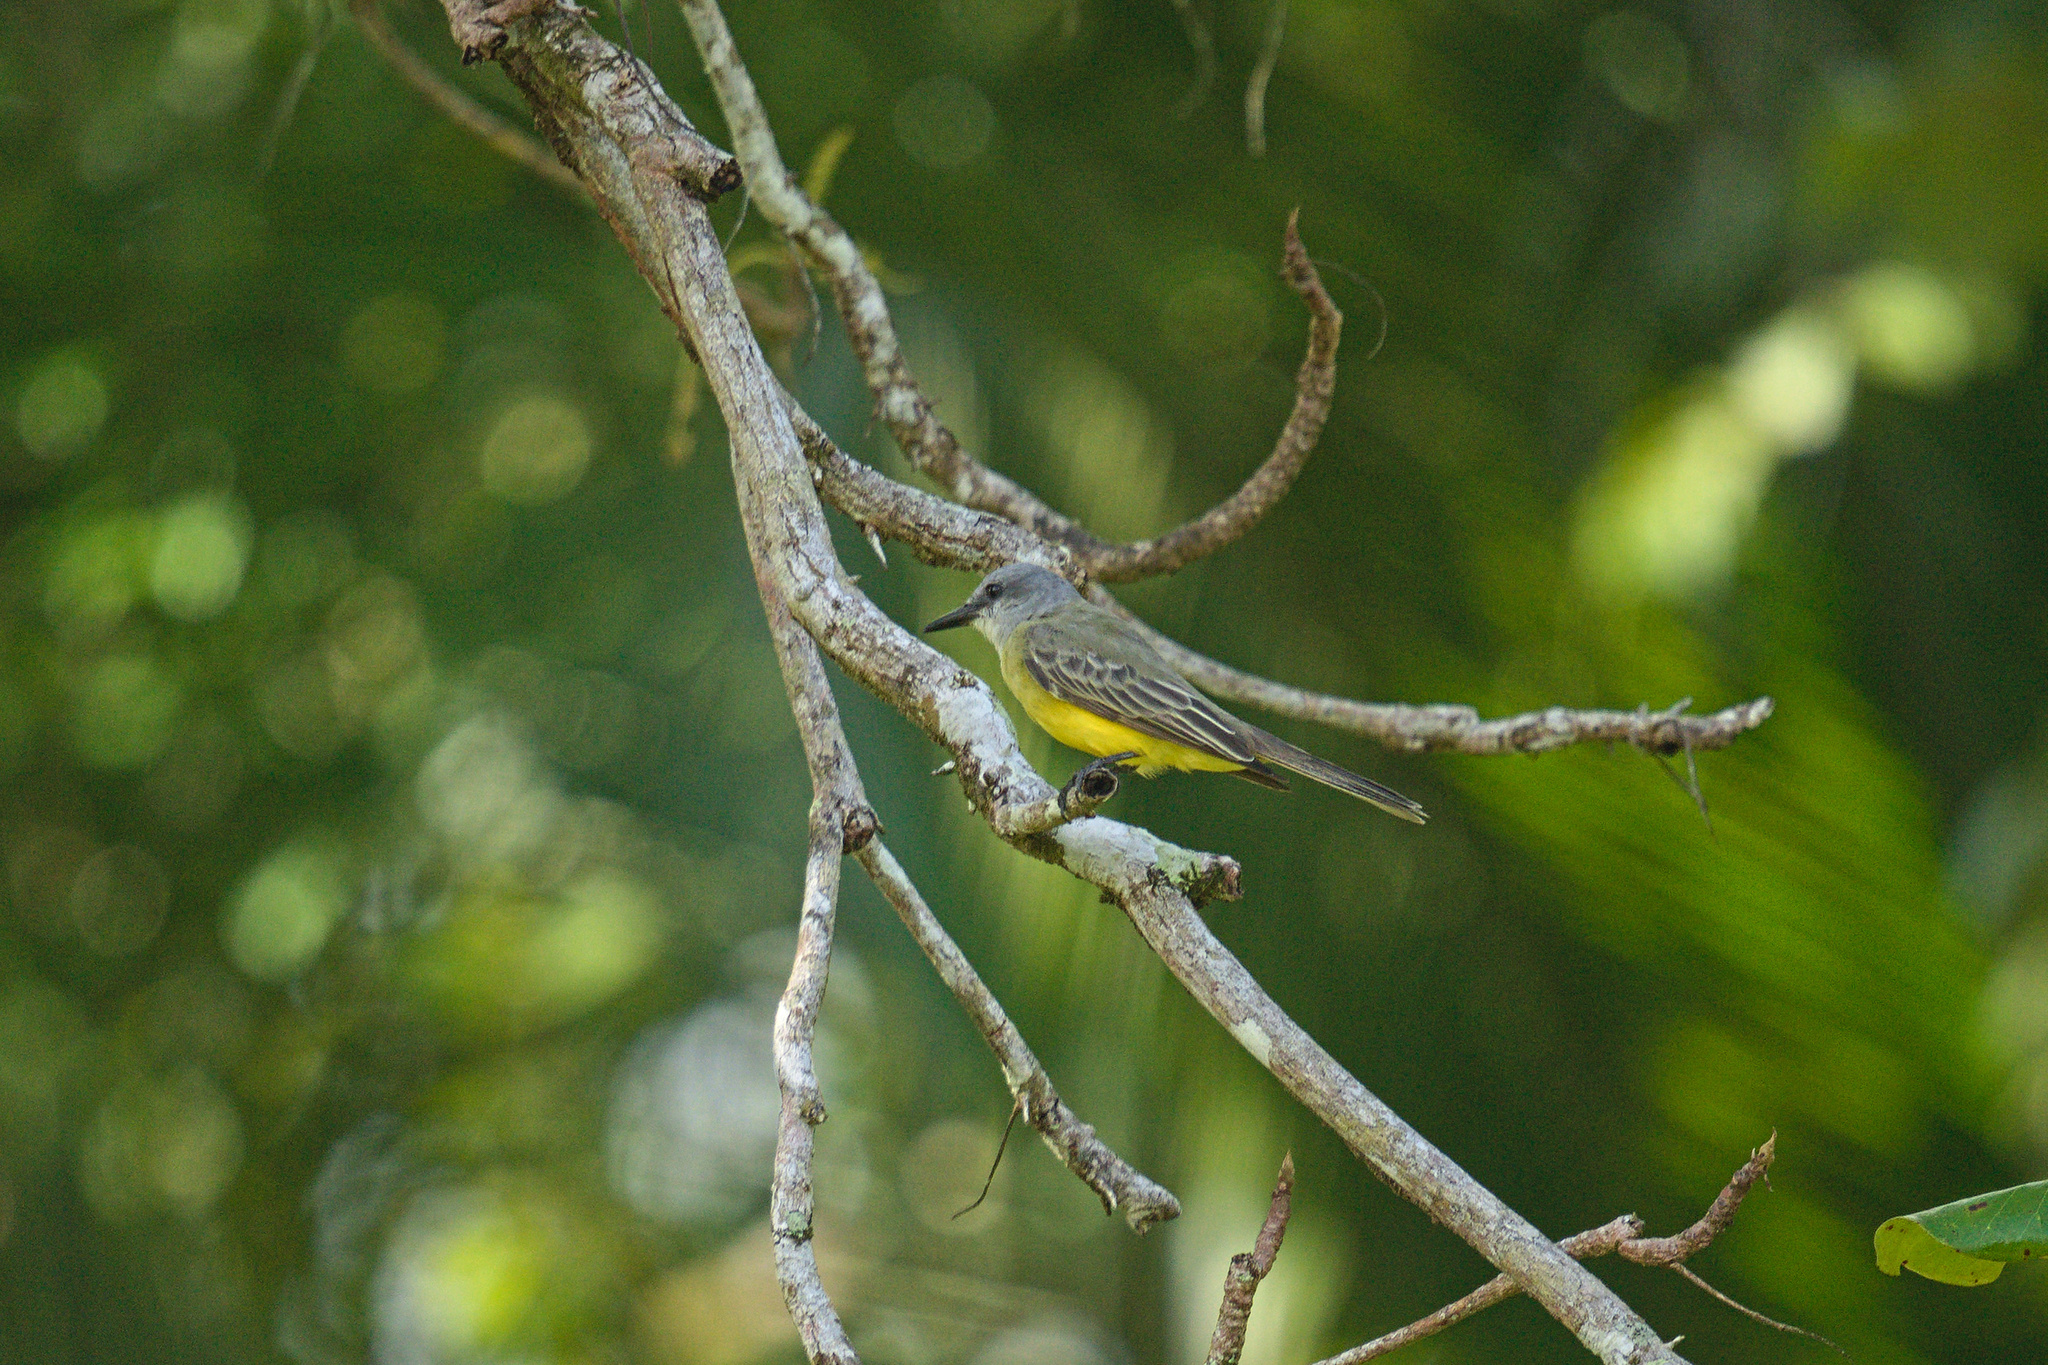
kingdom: Animalia
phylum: Chordata
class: Aves
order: Passeriformes
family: Tyrannidae
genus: Tyrannus
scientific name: Tyrannus melancholicus
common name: Tropical kingbird
